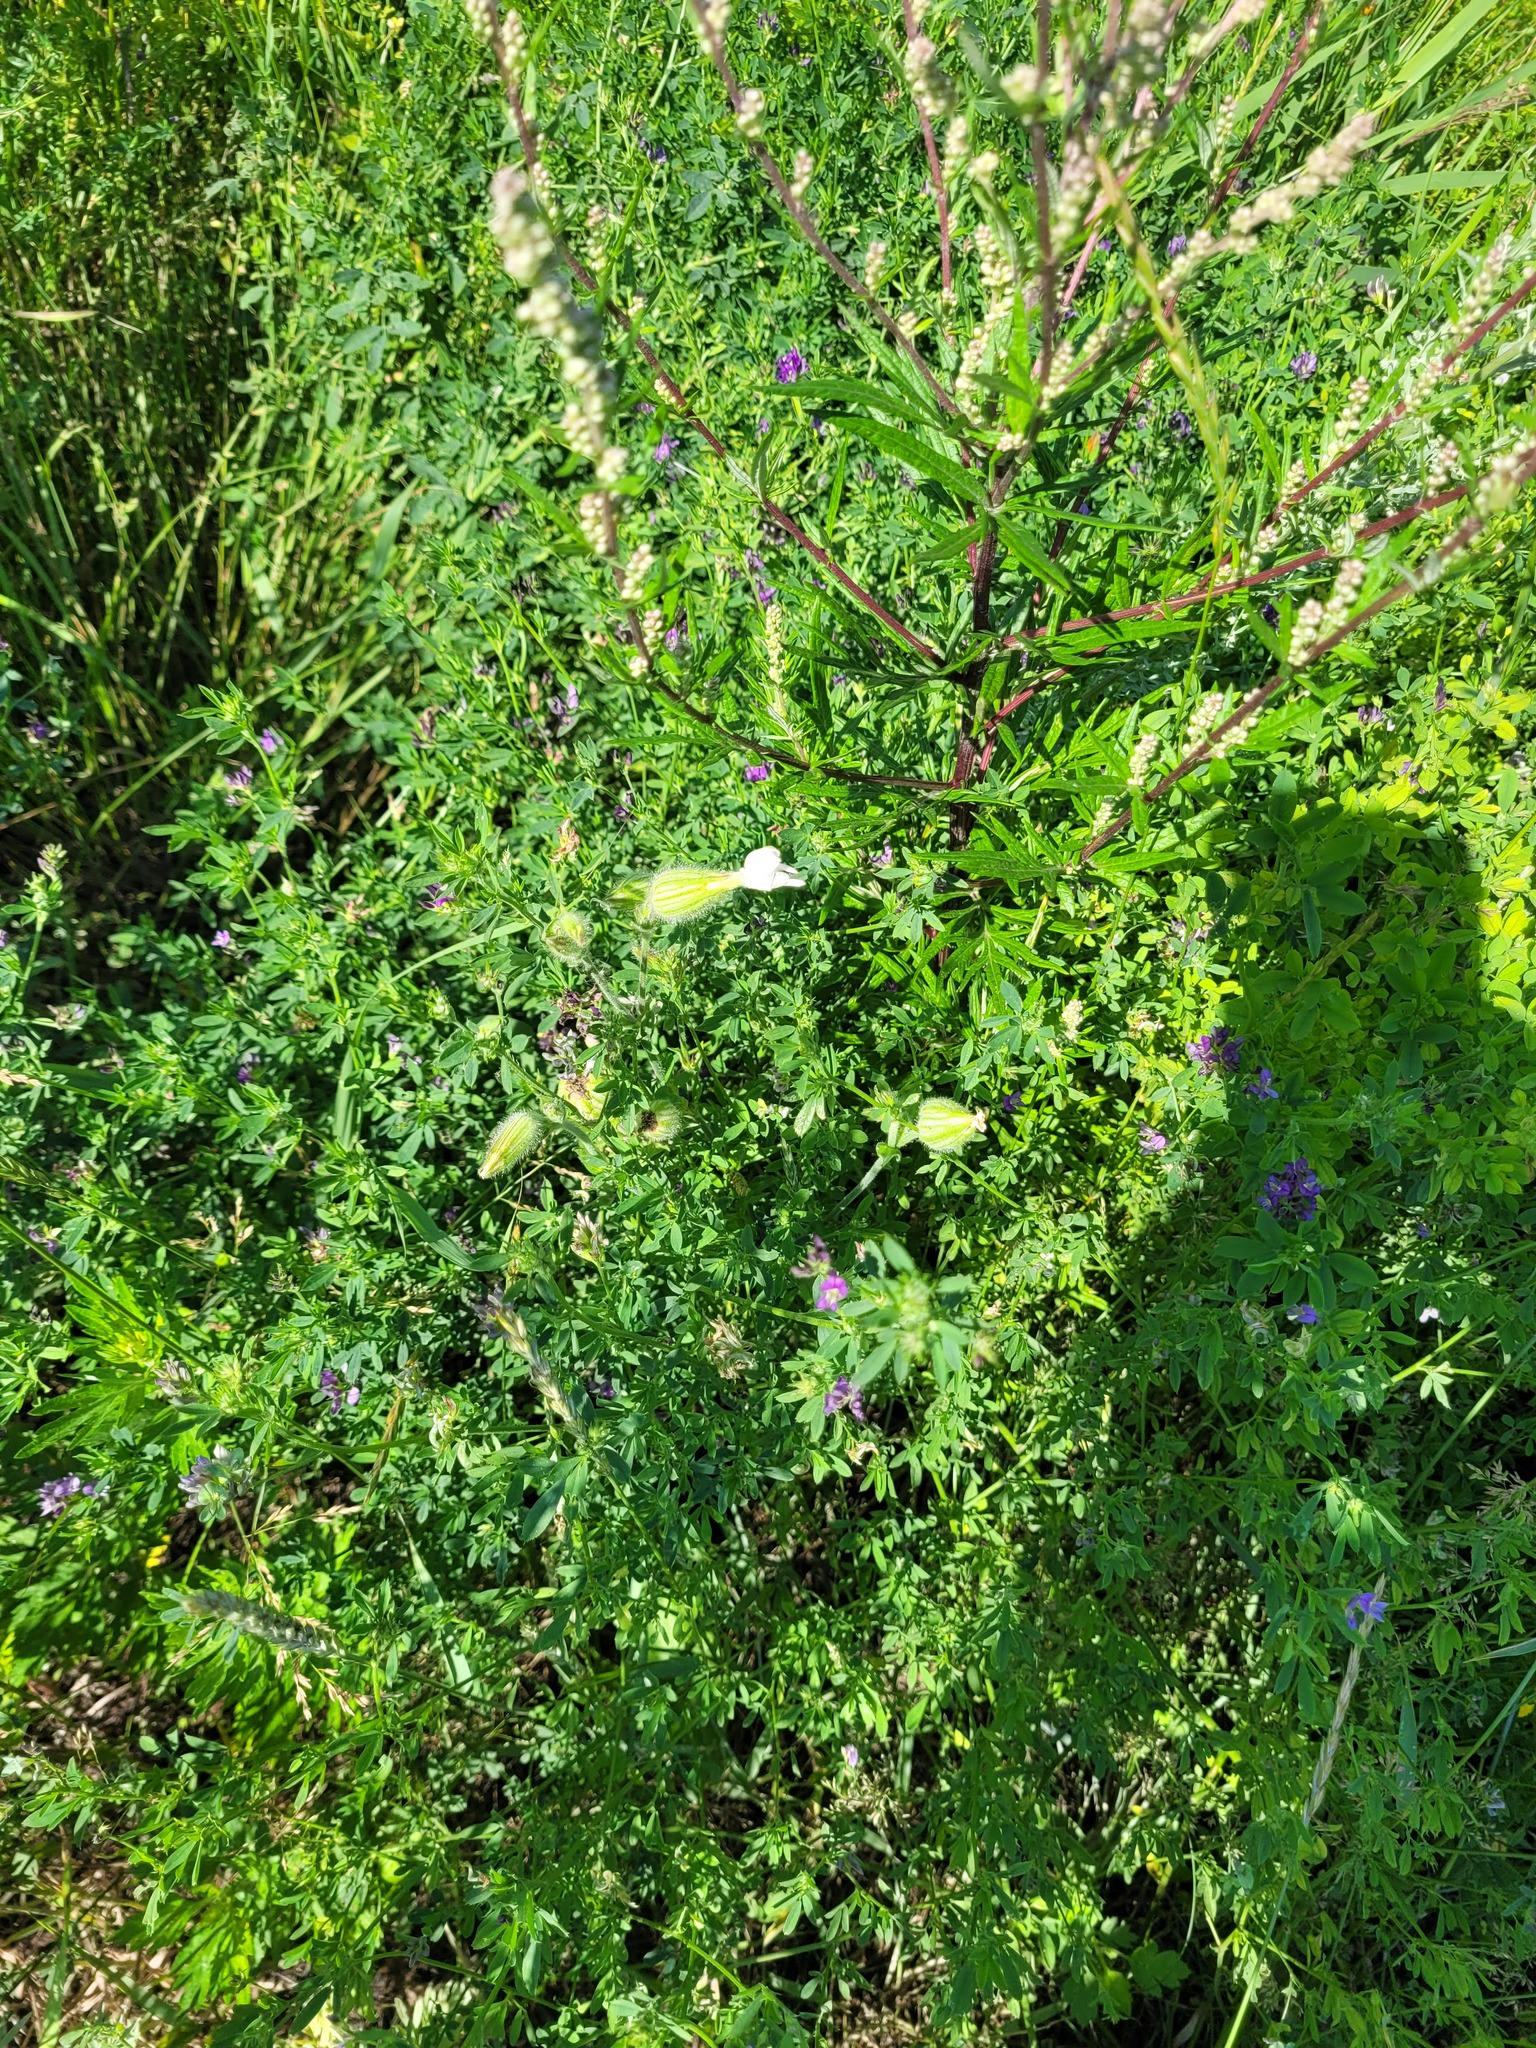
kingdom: Plantae
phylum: Tracheophyta
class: Magnoliopsida
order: Caryophyllales
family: Caryophyllaceae
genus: Silene
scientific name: Silene latifolia
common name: White campion
